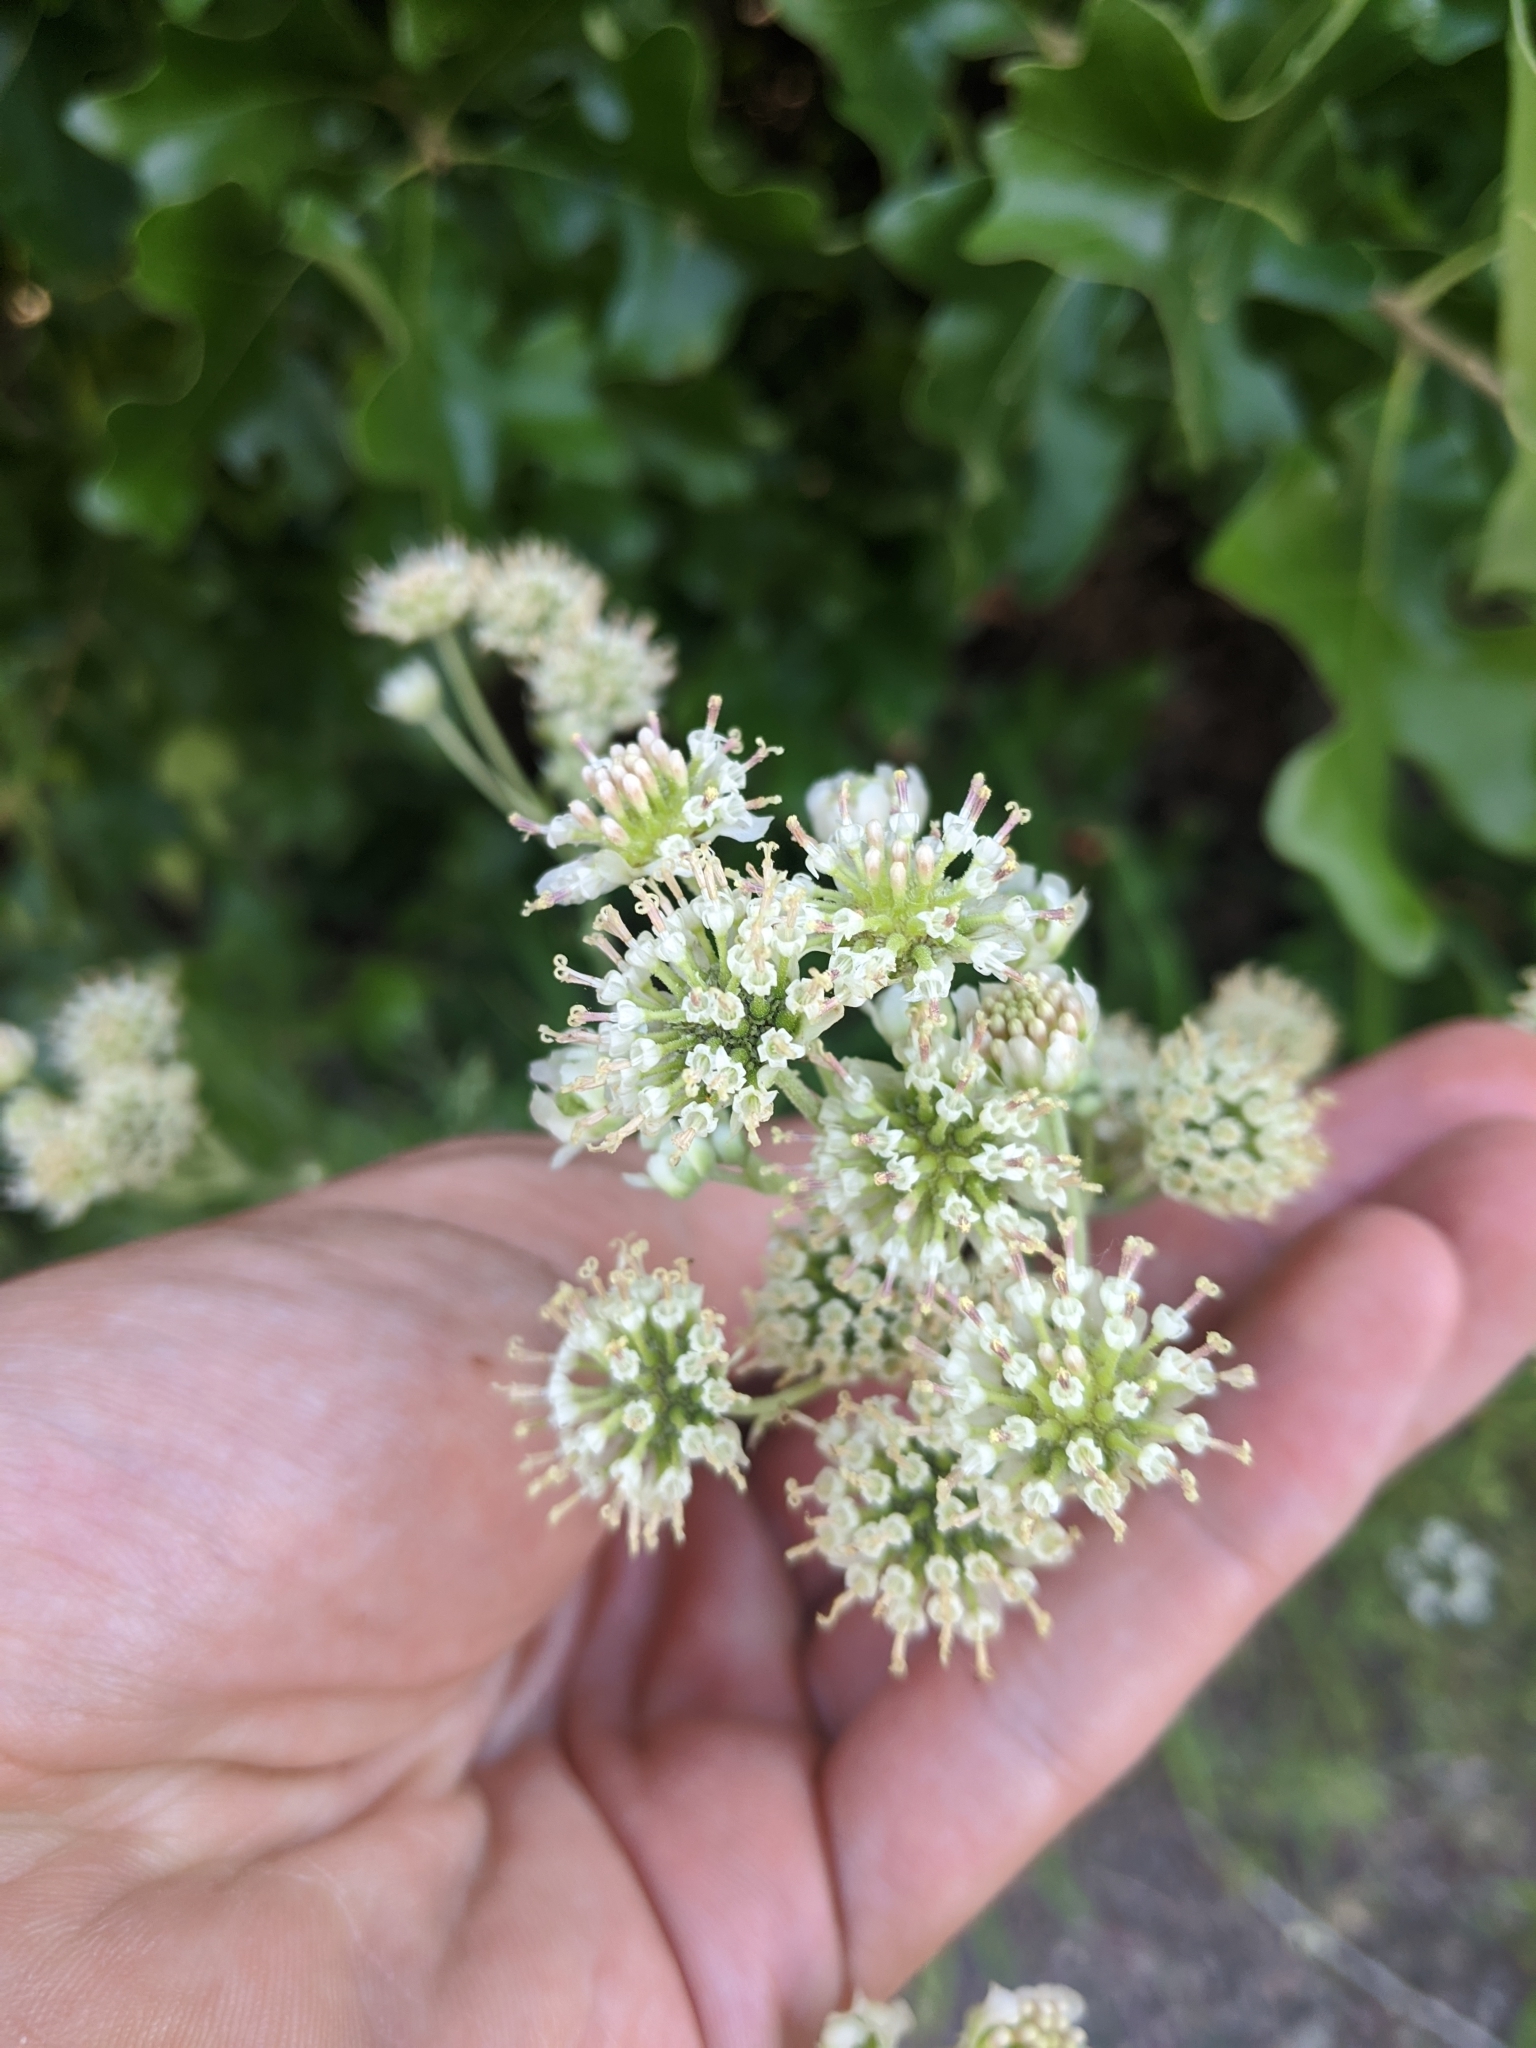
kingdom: Plantae
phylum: Tracheophyta
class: Magnoliopsida
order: Asterales
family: Asteraceae
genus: Hymenopappus
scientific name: Hymenopappus scabiosaeus
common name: Carolina woollywhite
